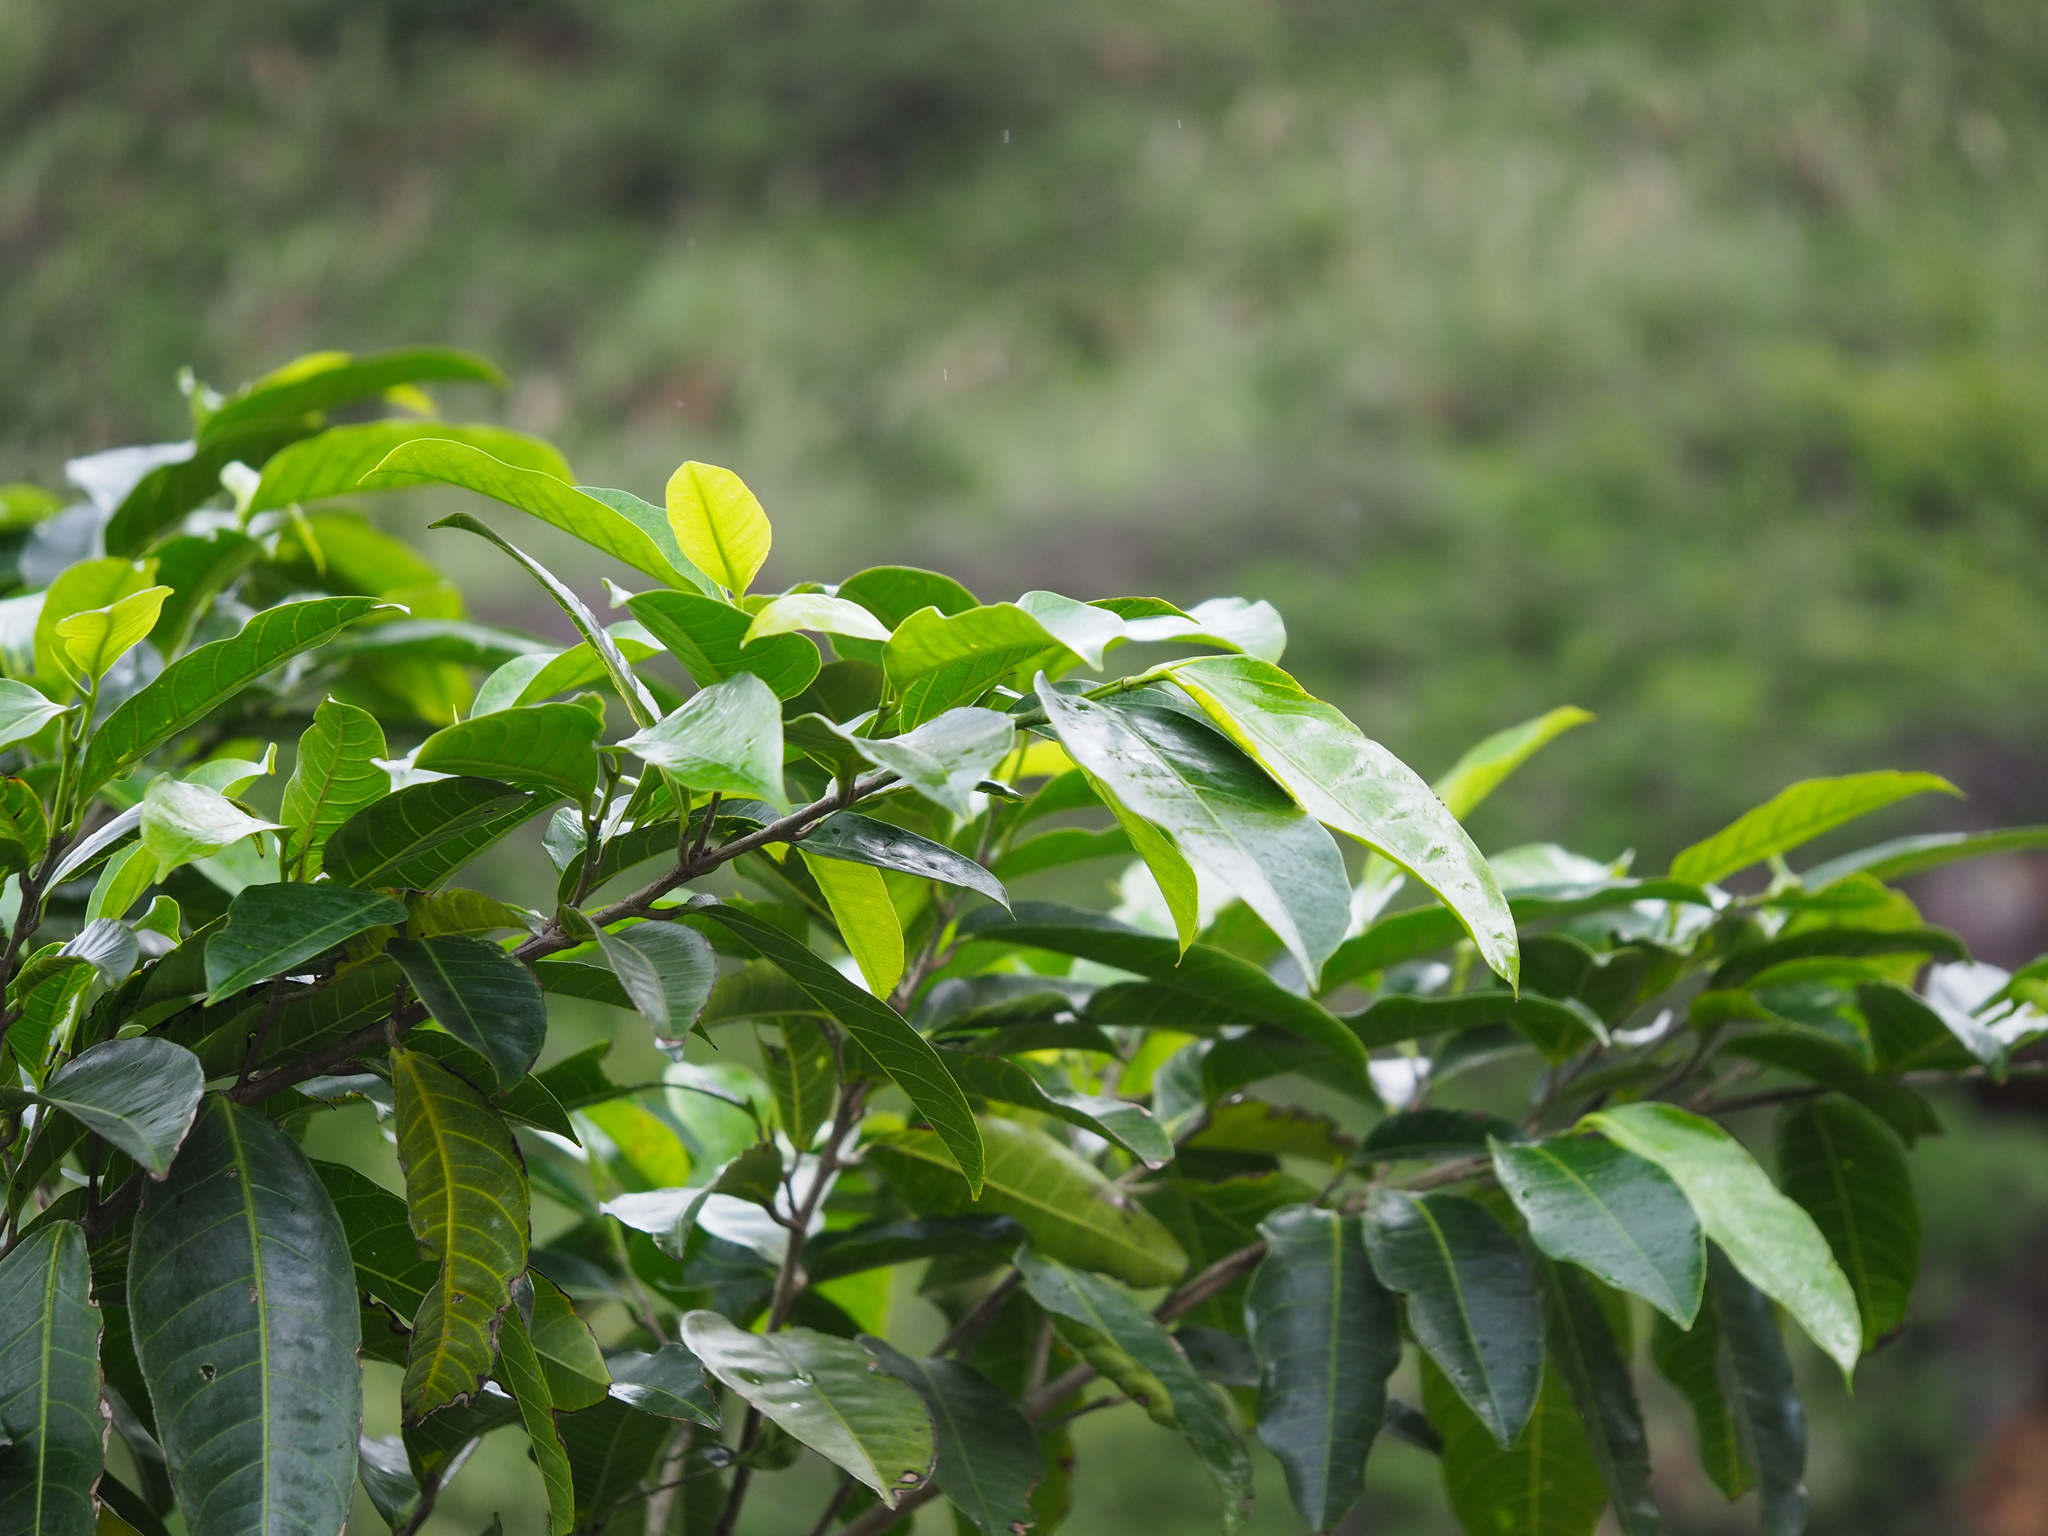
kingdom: Plantae
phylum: Tracheophyta
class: Magnoliopsida
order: Rosales
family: Moraceae
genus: Ficus
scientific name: Ficus virgata
